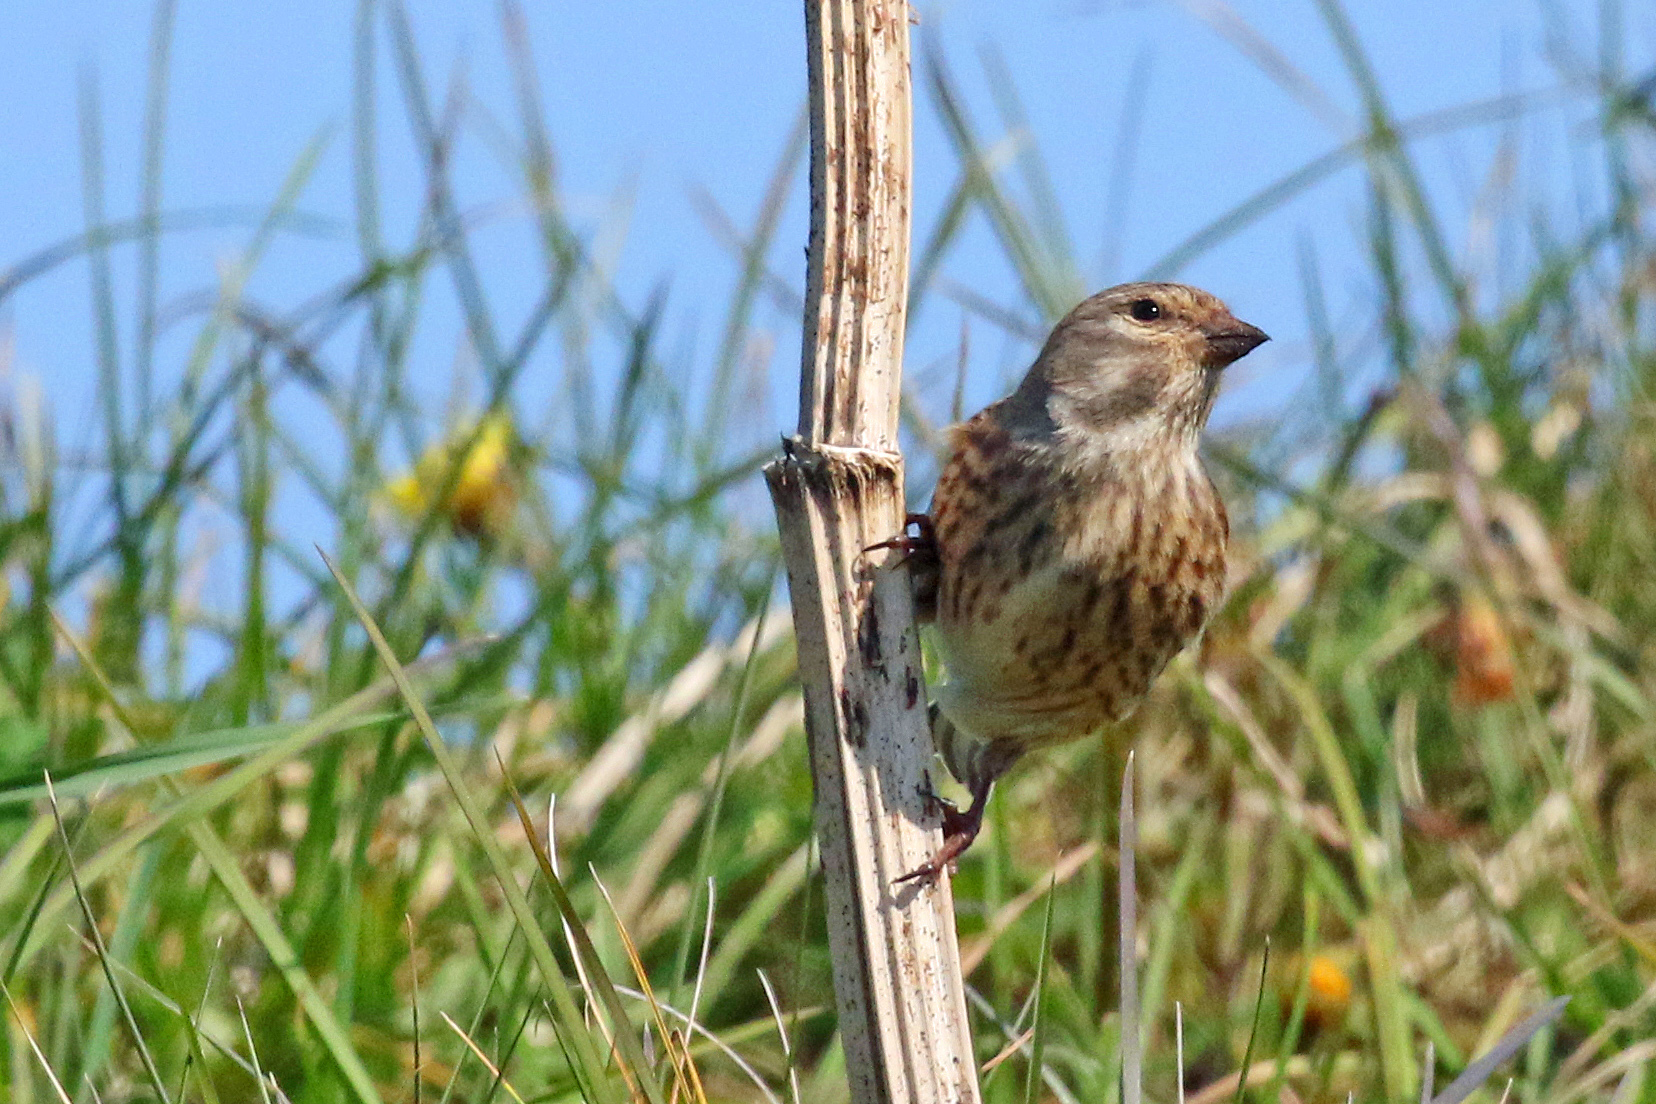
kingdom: Animalia
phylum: Chordata
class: Aves
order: Passeriformes
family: Fringillidae
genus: Linaria
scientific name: Linaria cannabina
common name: Common linnet
